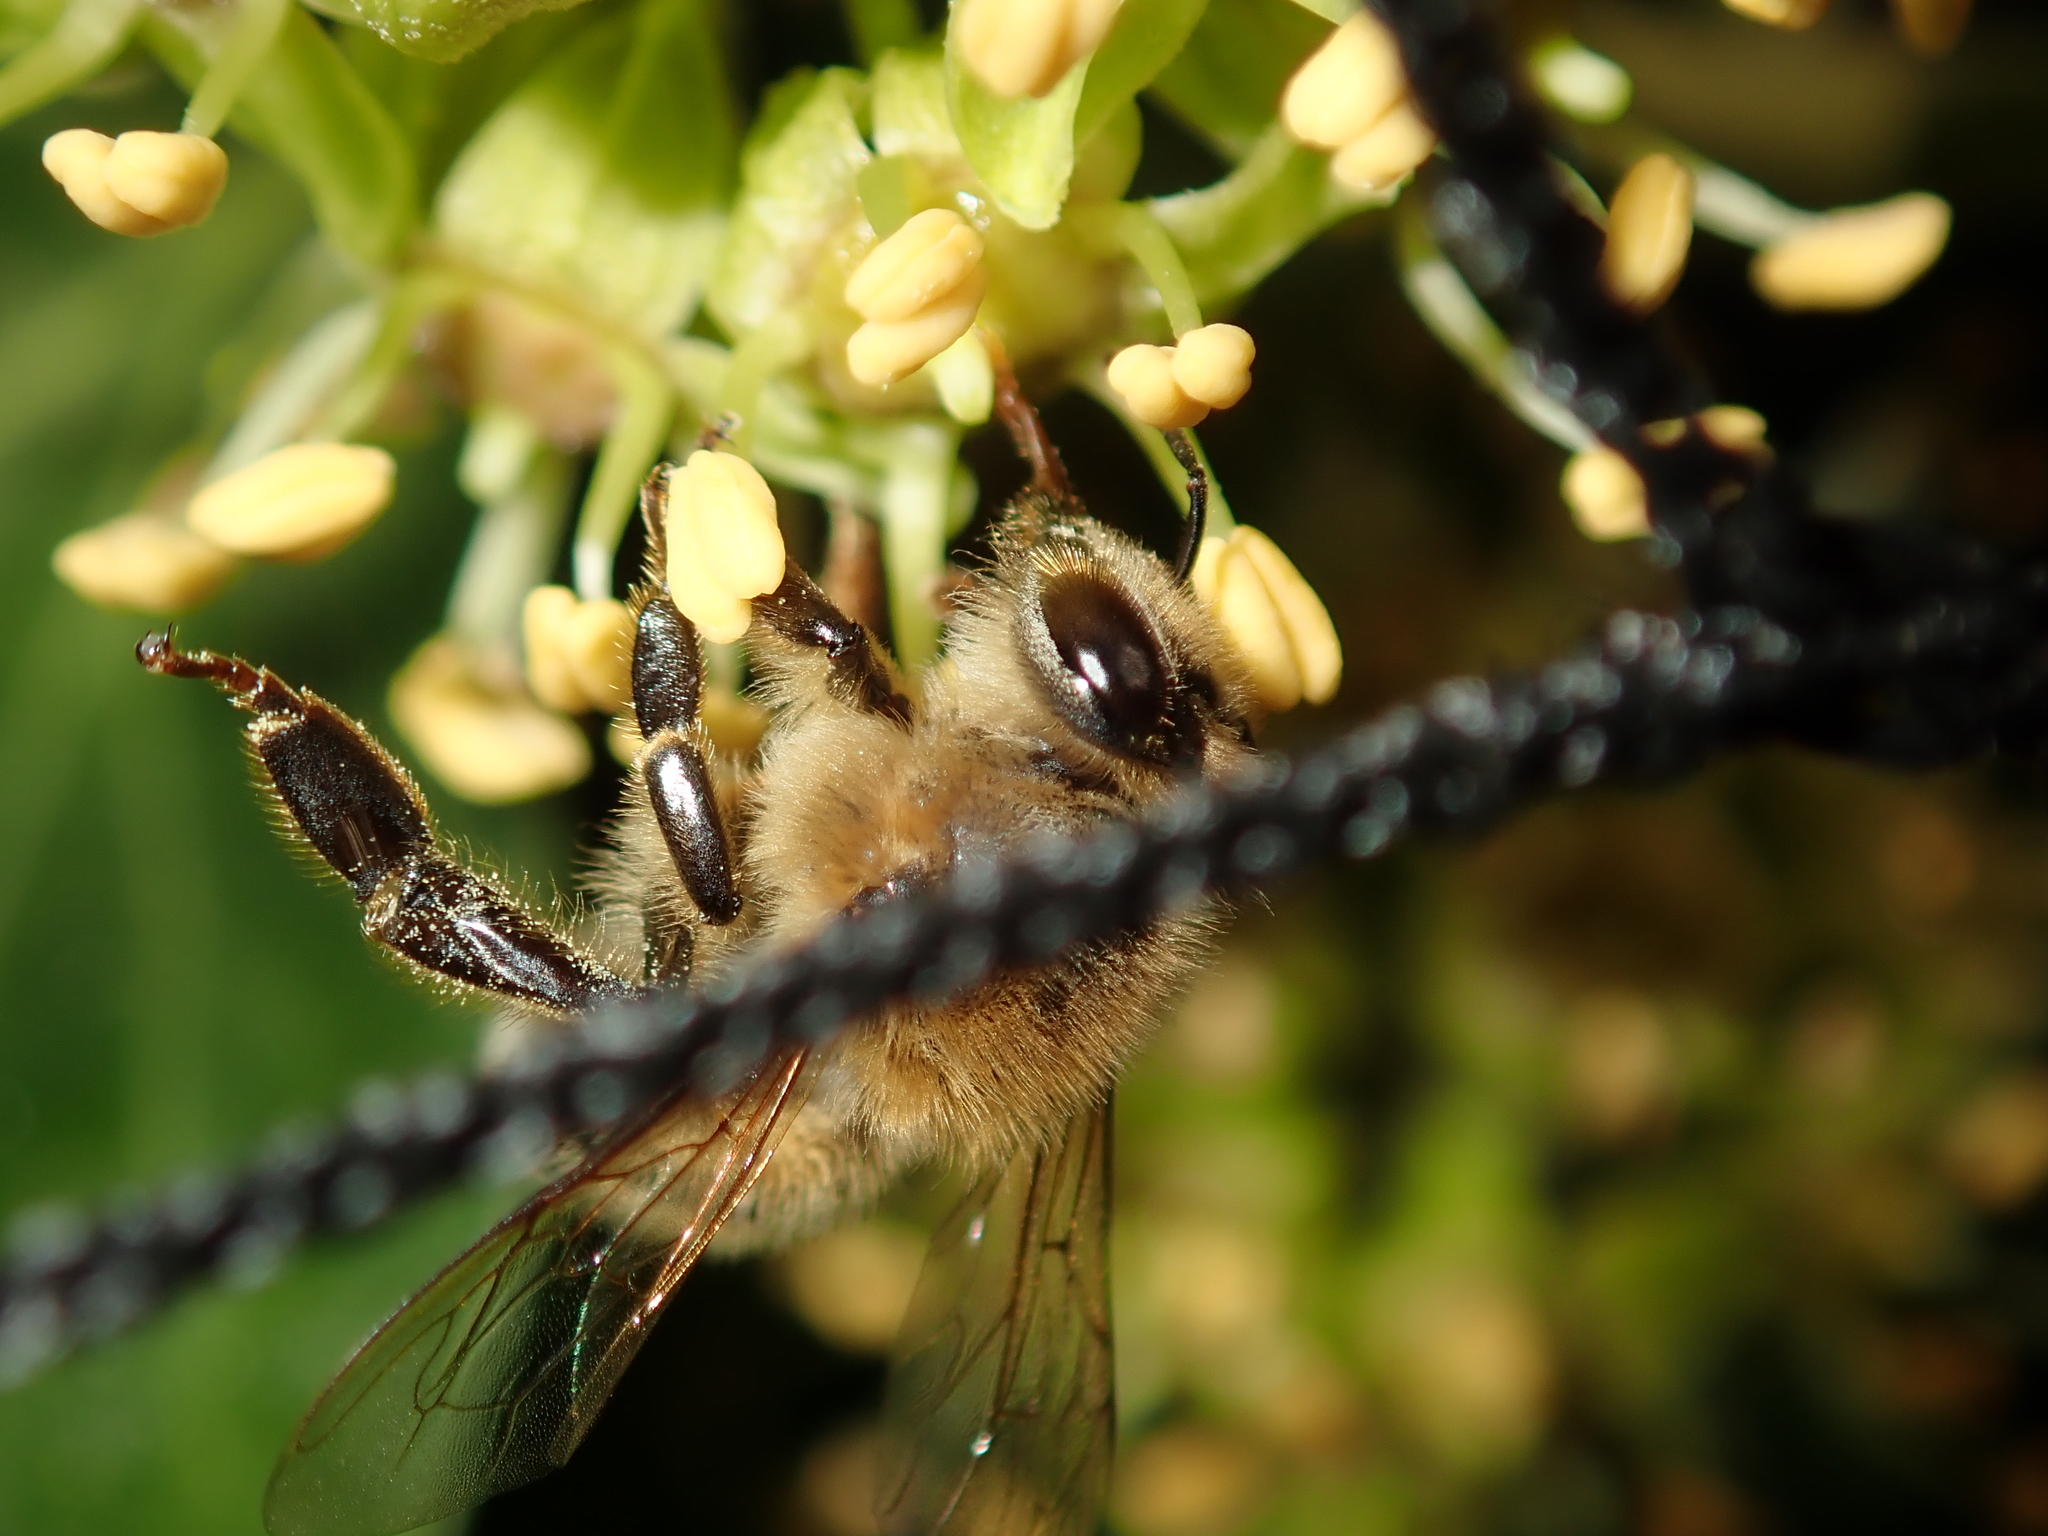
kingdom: Animalia
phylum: Arthropoda
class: Insecta
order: Hymenoptera
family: Apidae
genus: Apis
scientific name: Apis mellifera
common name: Honey bee
